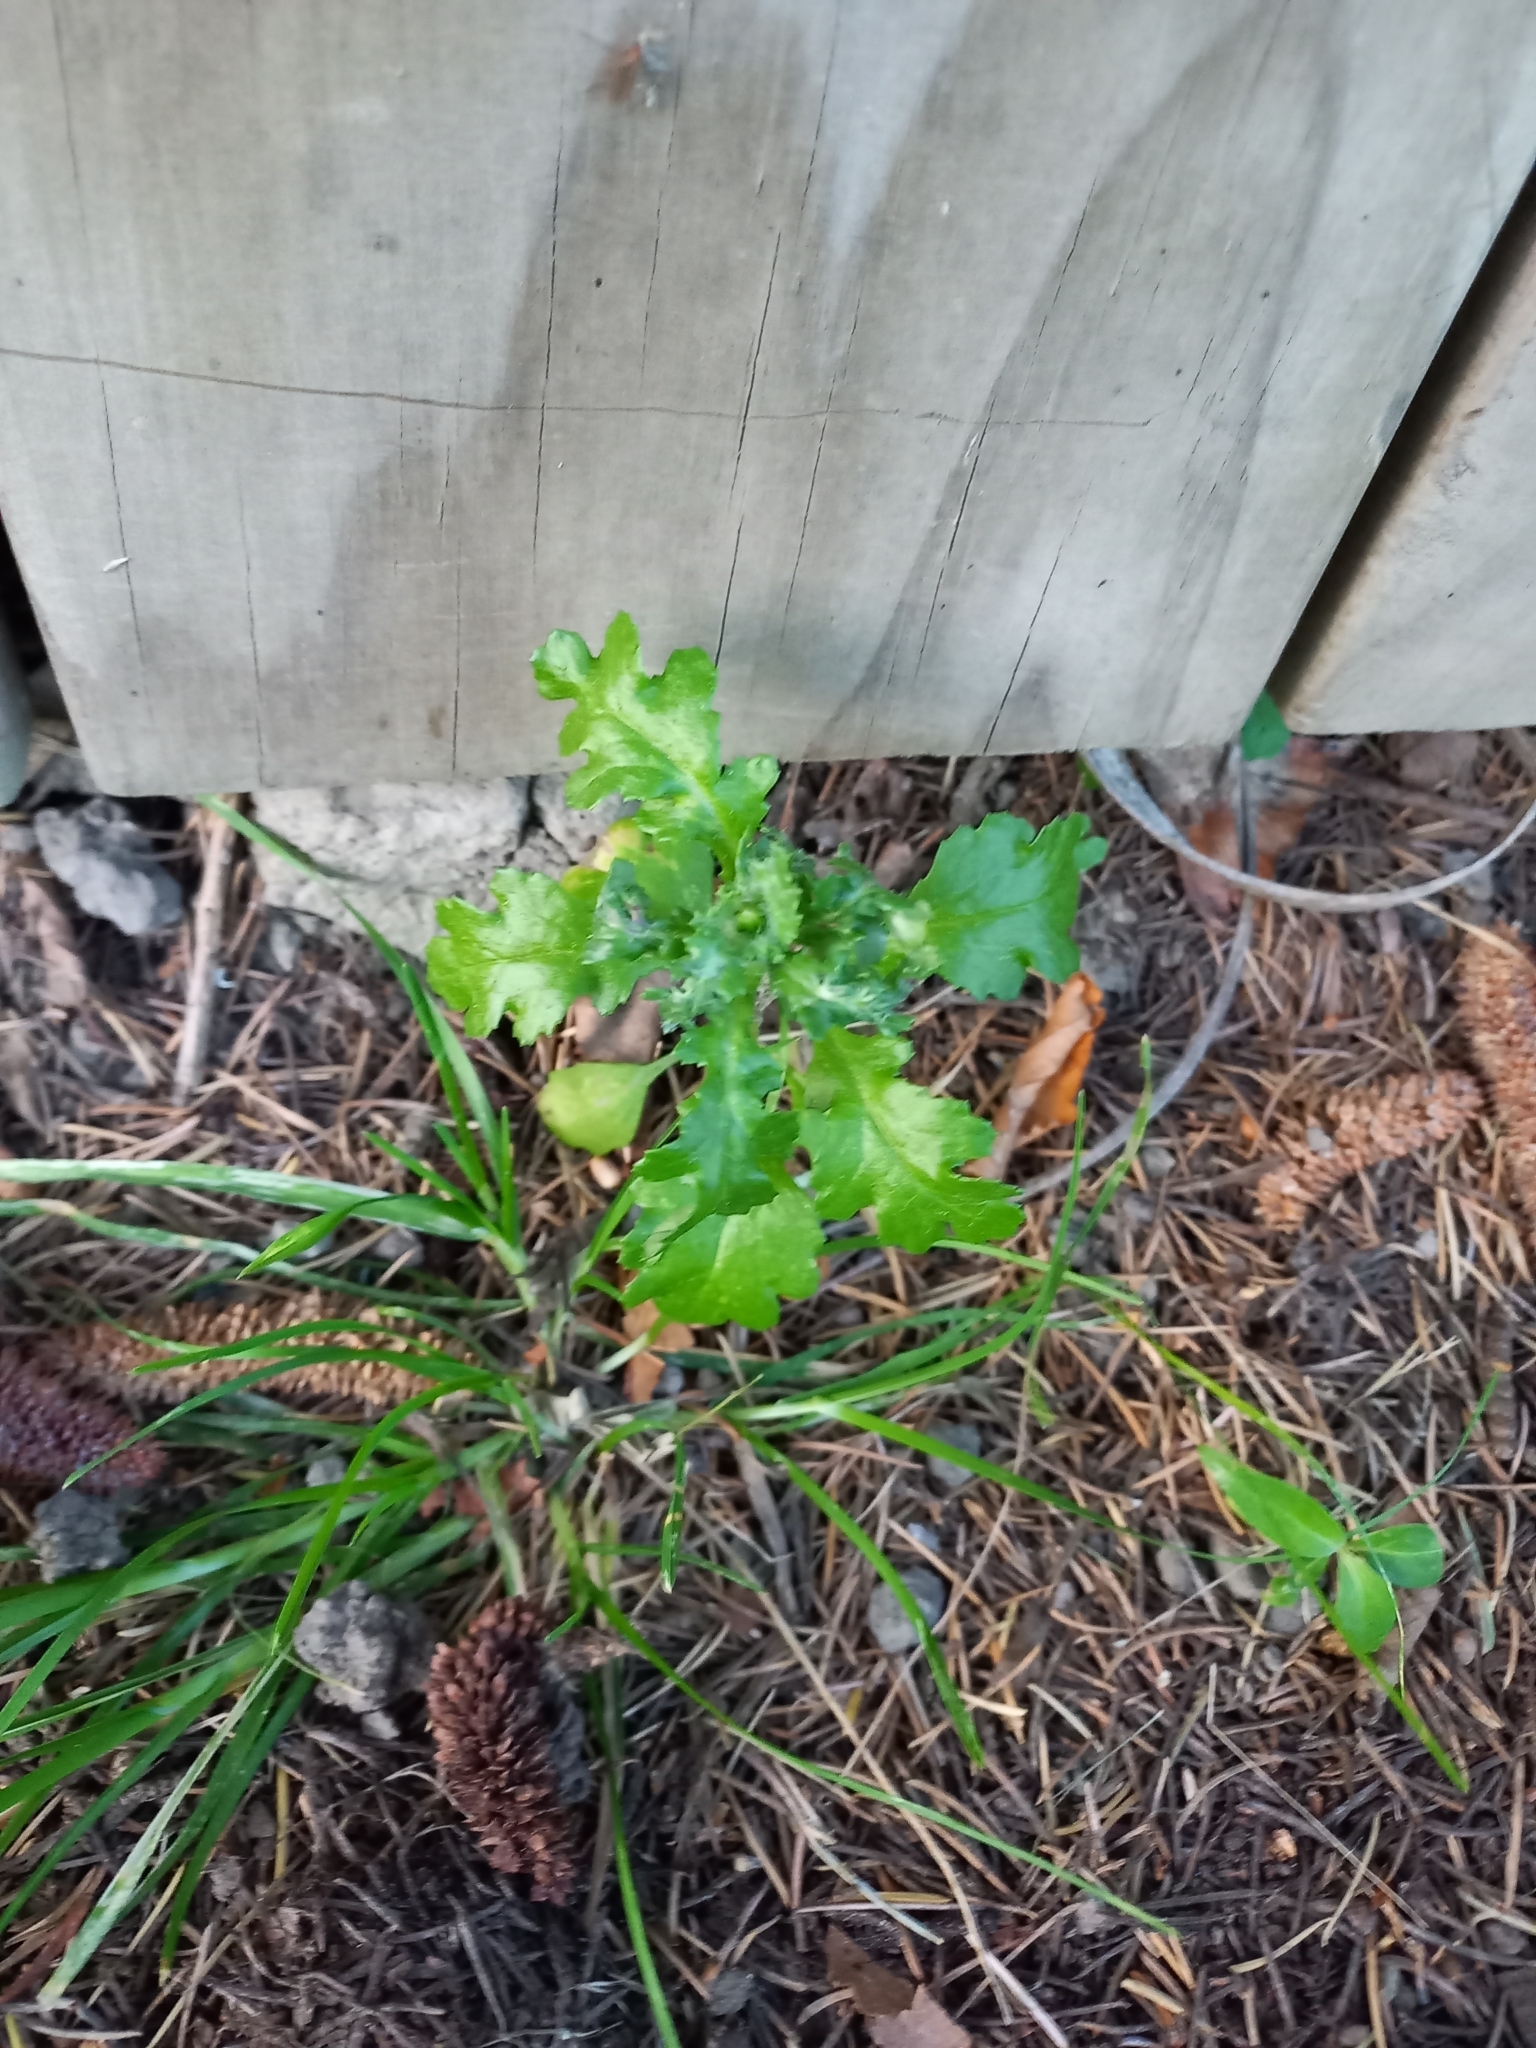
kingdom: Plantae
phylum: Tracheophyta
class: Magnoliopsida
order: Asterales
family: Asteraceae
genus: Senecio
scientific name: Senecio vulgaris
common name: Old-man-in-the-spring
